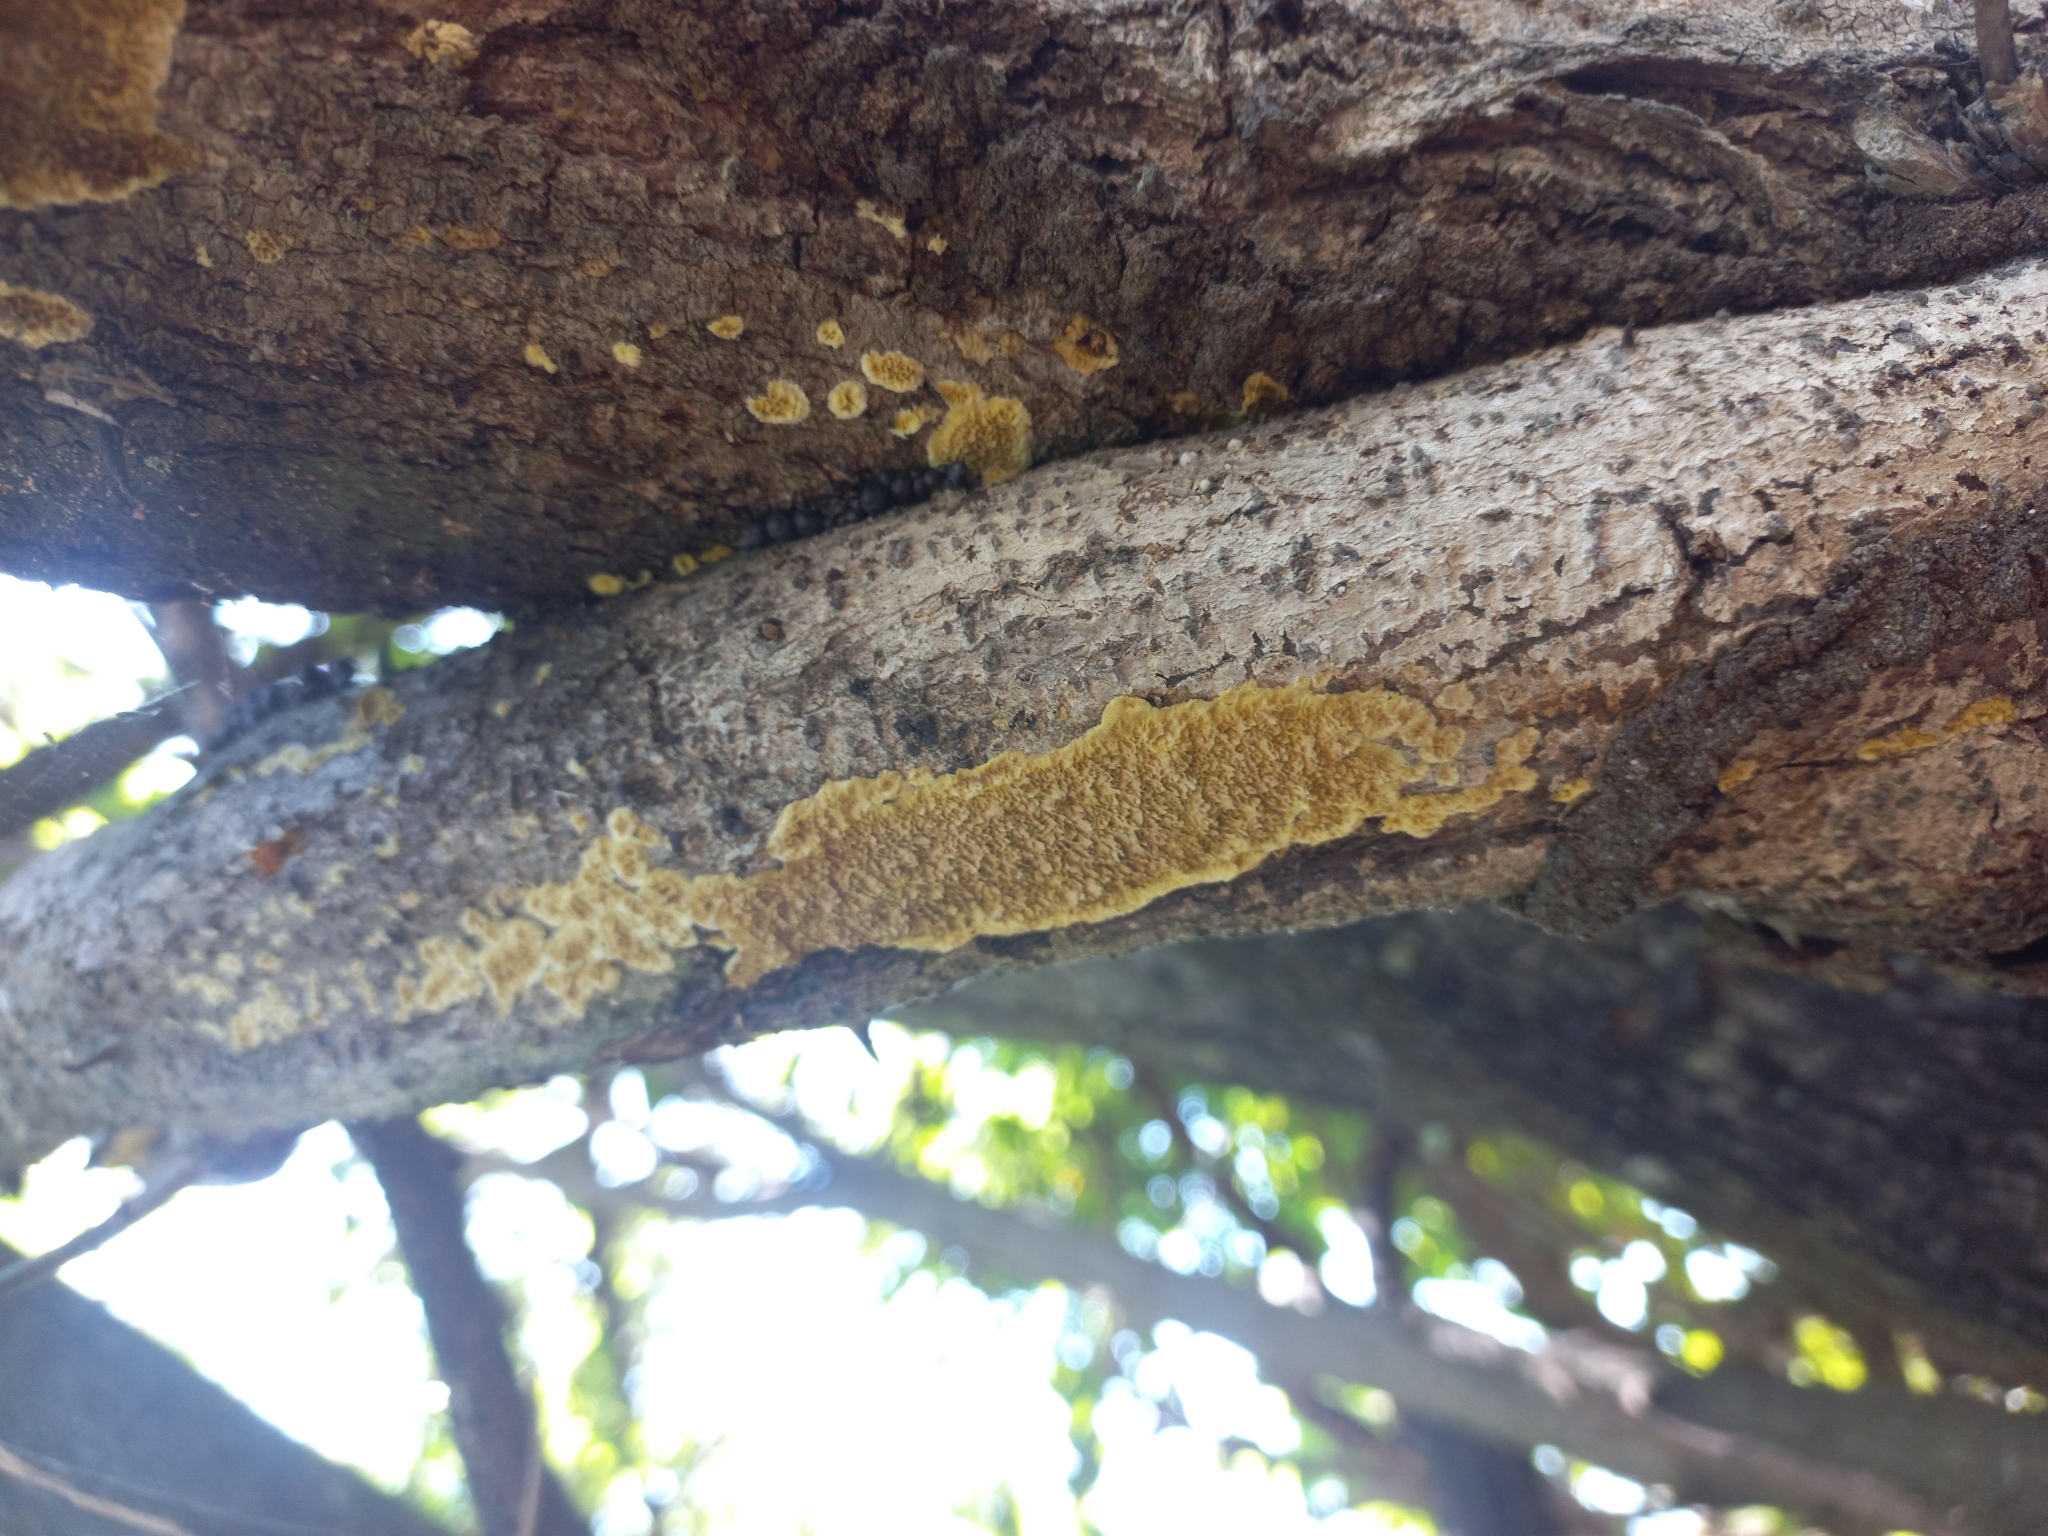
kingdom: Fungi
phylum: Basidiomycota
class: Agaricomycetes
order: Polyporales
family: Irpicaceae
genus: Flavodon
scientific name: Flavodon flavus
